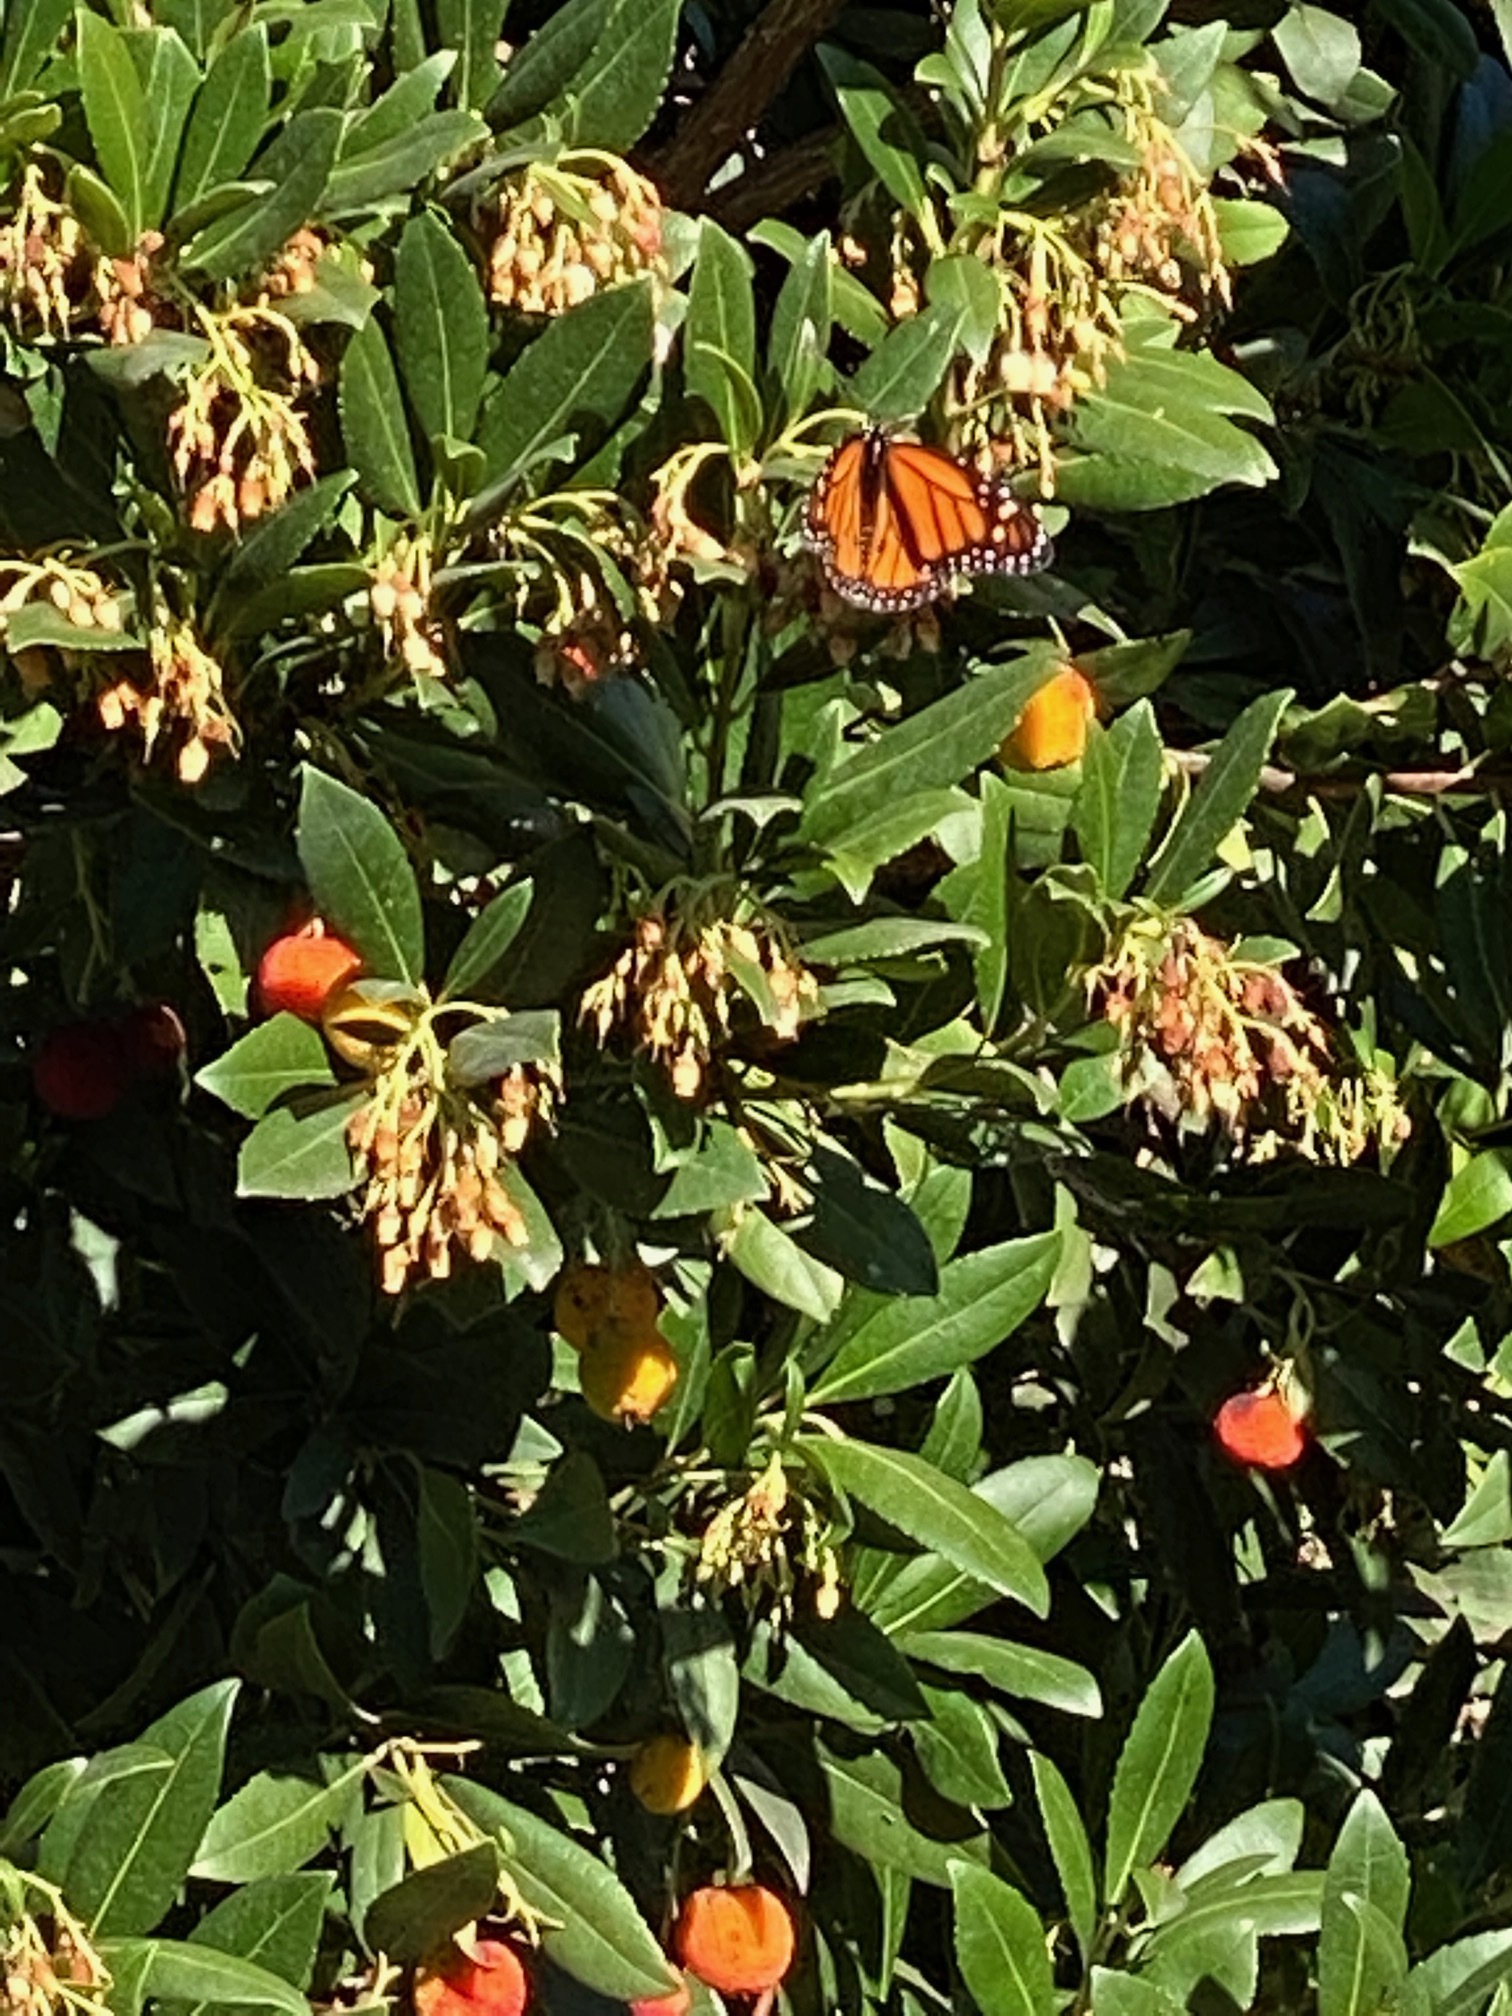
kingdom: Animalia
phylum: Arthropoda
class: Insecta
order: Lepidoptera
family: Nymphalidae
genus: Danaus
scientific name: Danaus plexippus
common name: Monarch
